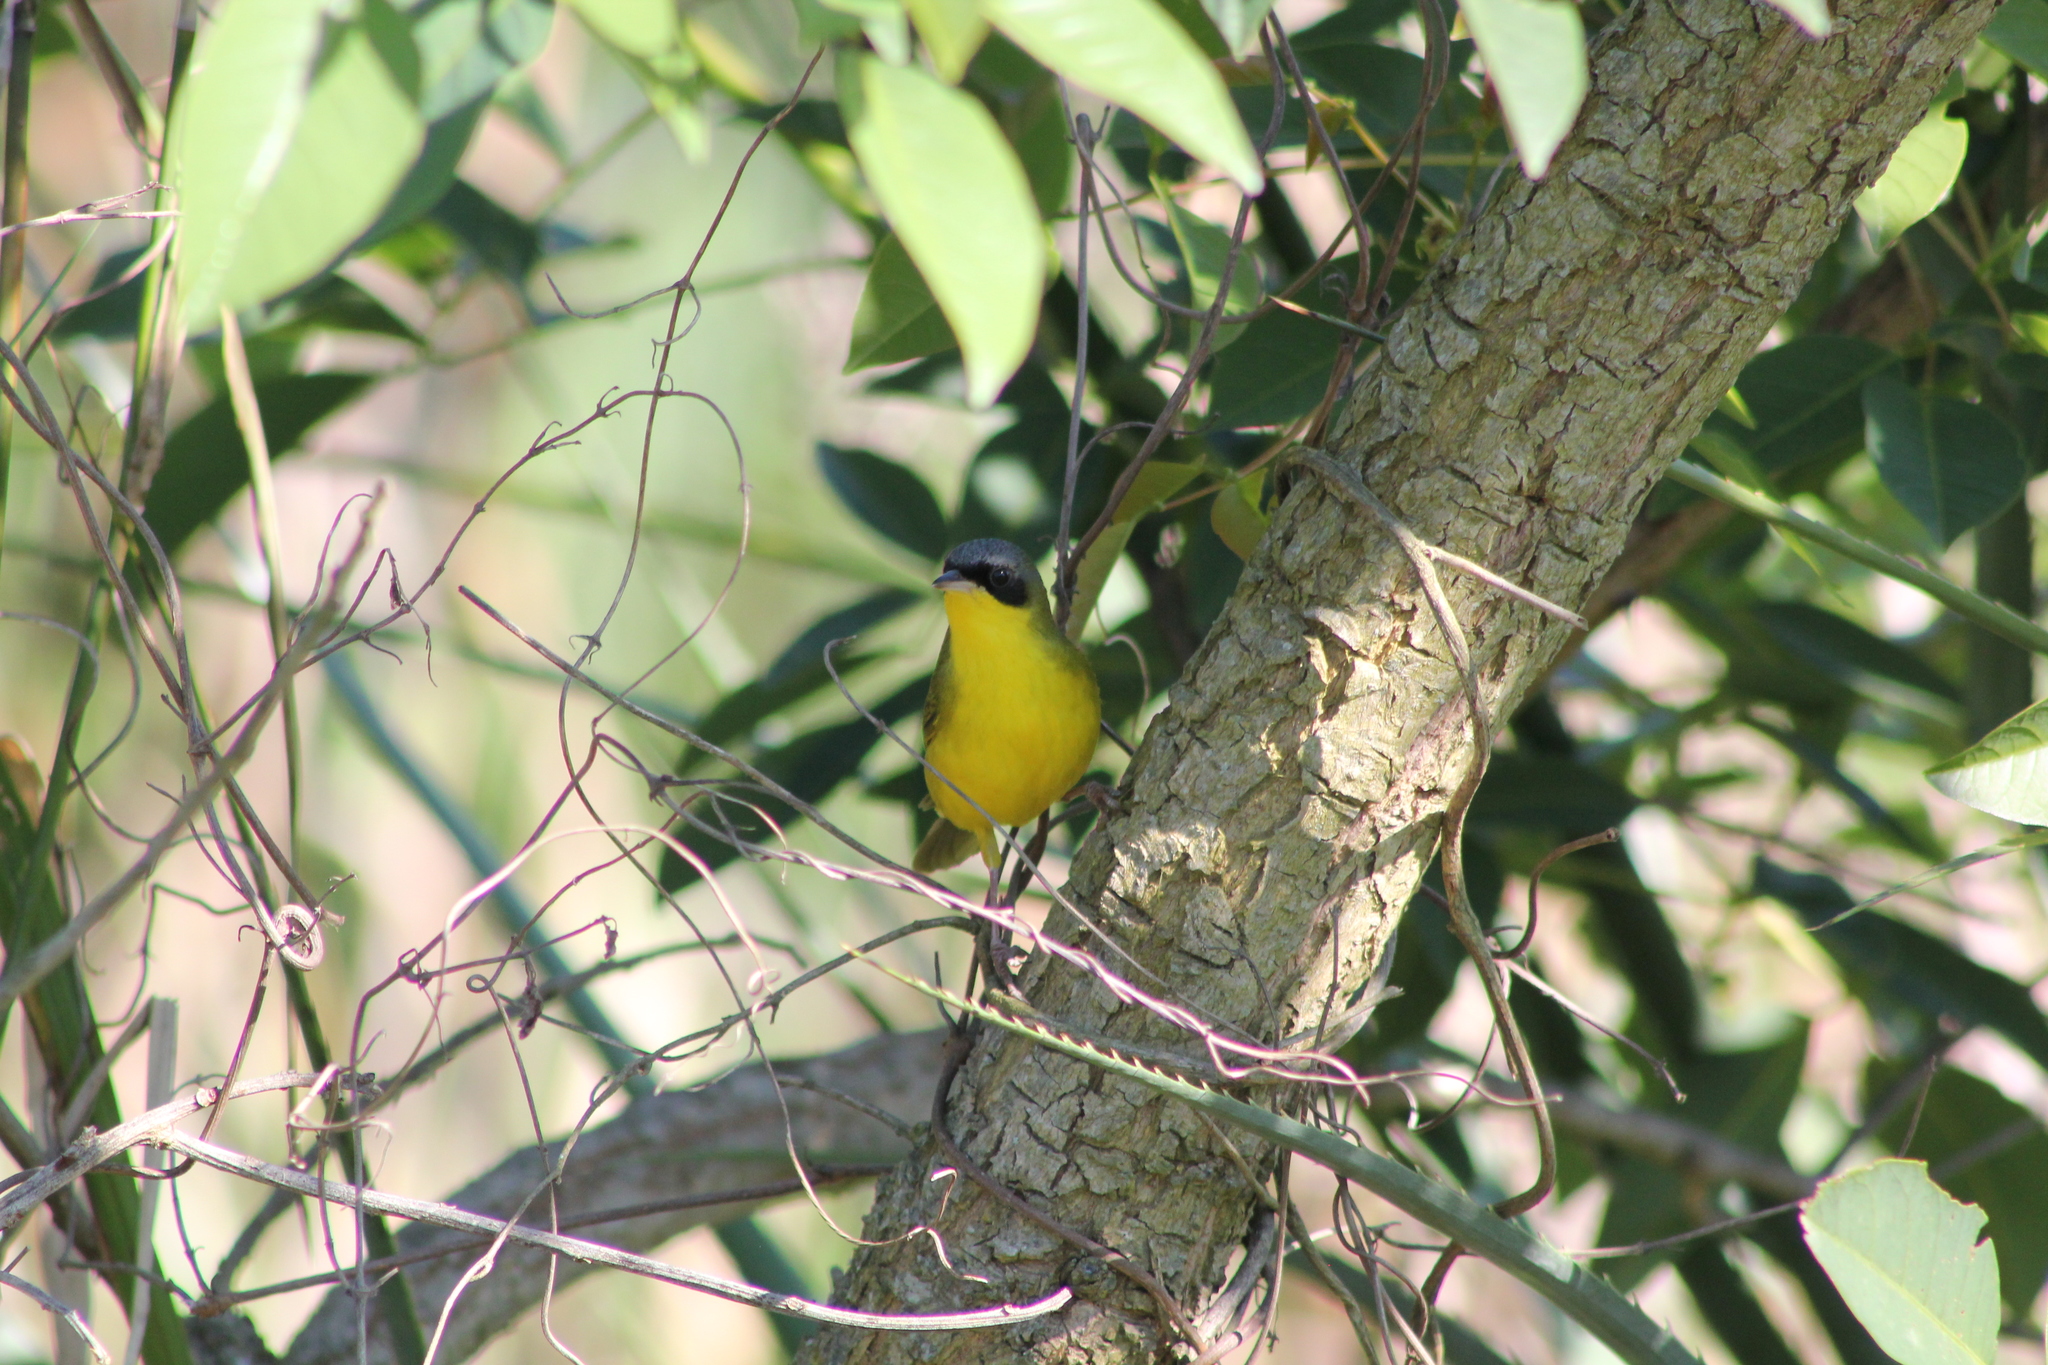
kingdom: Animalia
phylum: Chordata
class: Aves
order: Passeriformes
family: Parulidae
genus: Geothlypis
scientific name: Geothlypis velata
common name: Southern yellowthroat
